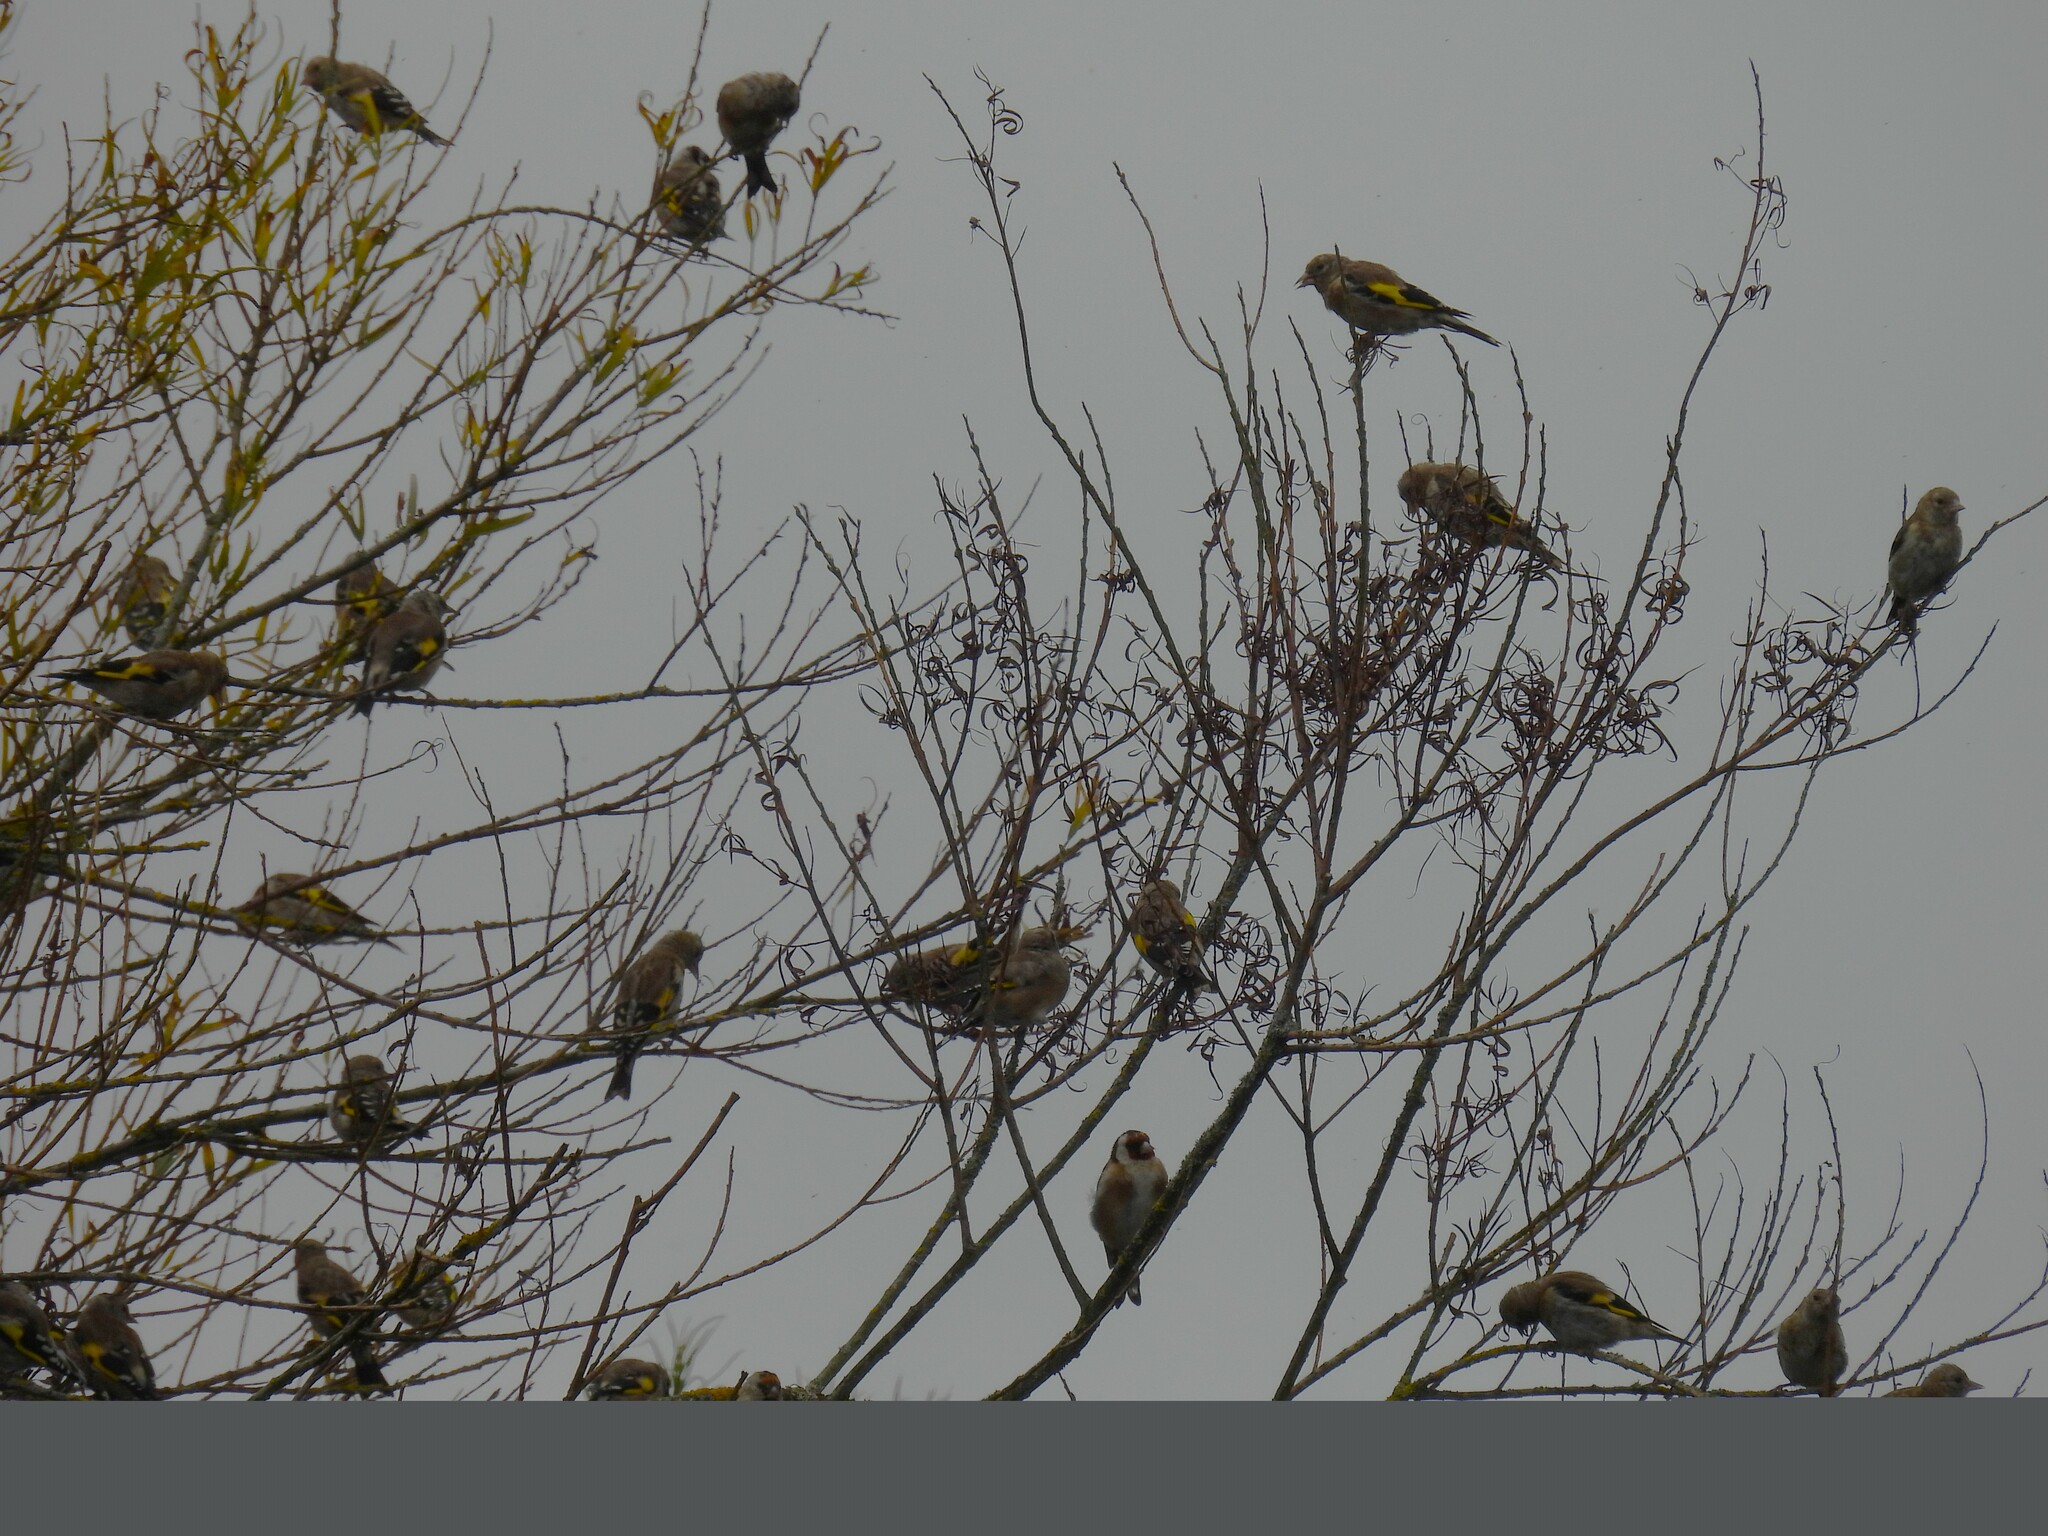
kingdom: Animalia
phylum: Chordata
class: Aves
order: Passeriformes
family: Fringillidae
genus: Carduelis
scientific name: Carduelis carduelis
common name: European goldfinch
